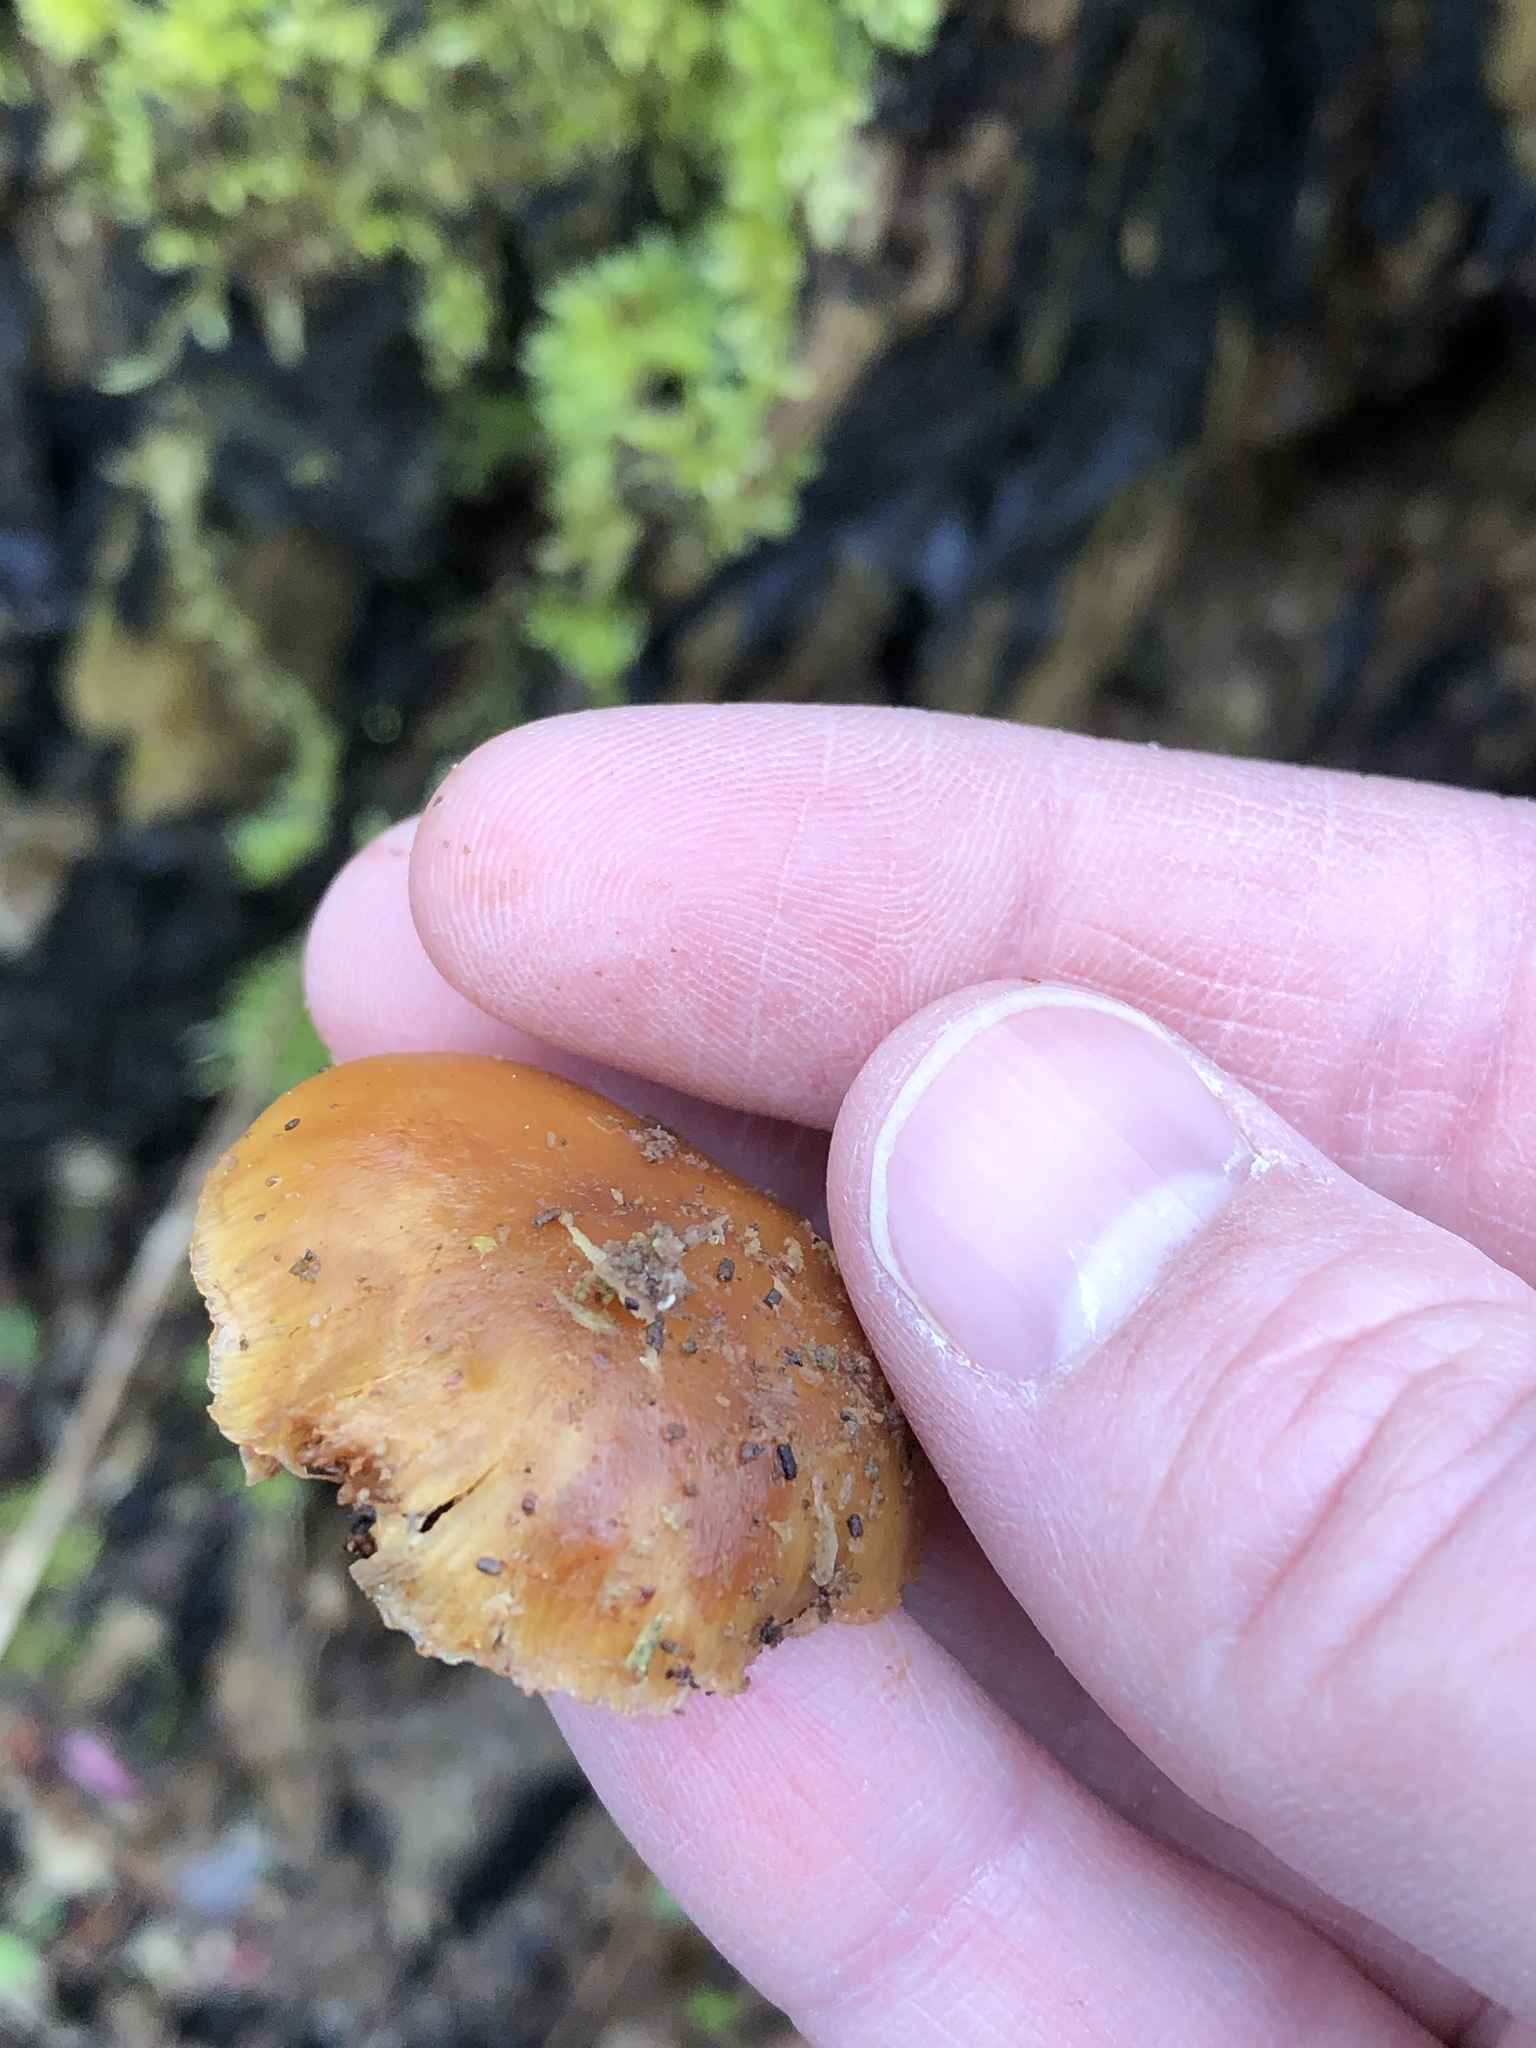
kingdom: Fungi
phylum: Basidiomycota
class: Agaricomycetes
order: Agaricales
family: Hymenogastraceae
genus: Galerina
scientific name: Galerina marginata
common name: Funeral bell
